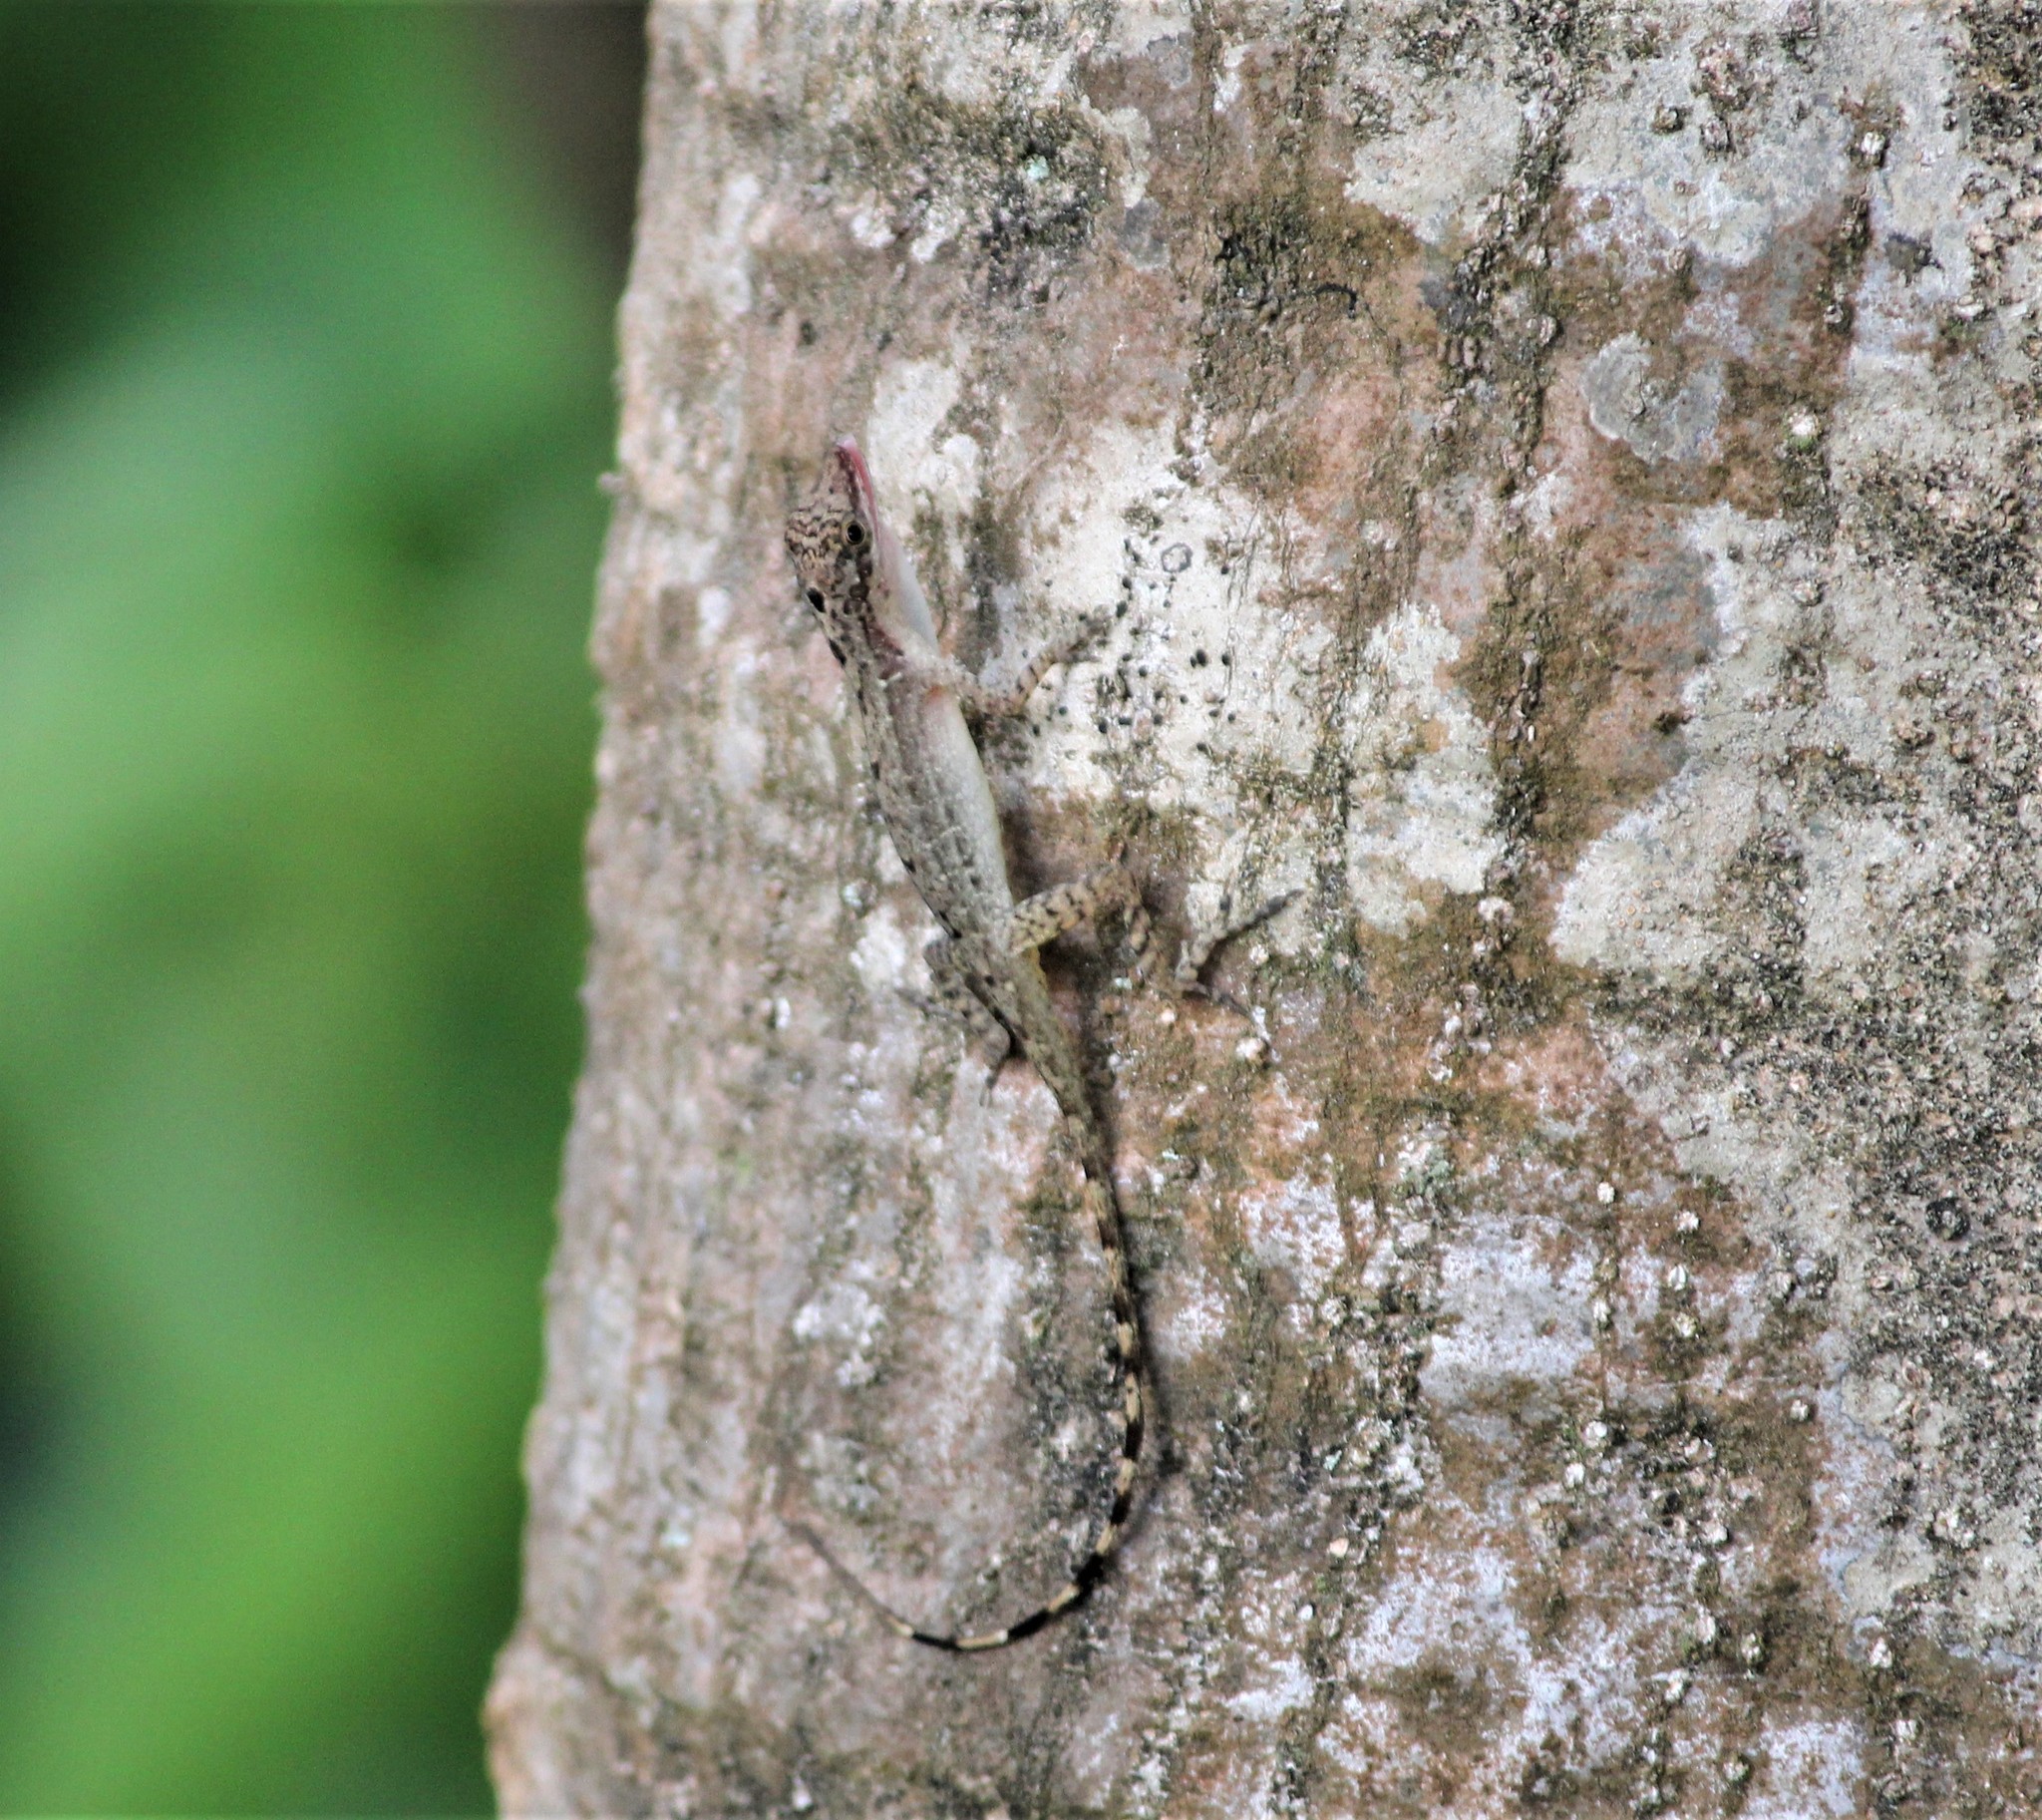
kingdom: Animalia
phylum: Chordata
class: Squamata
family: Dactyloidae
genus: Anolis
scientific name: Anolis limifrons
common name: Border anole
